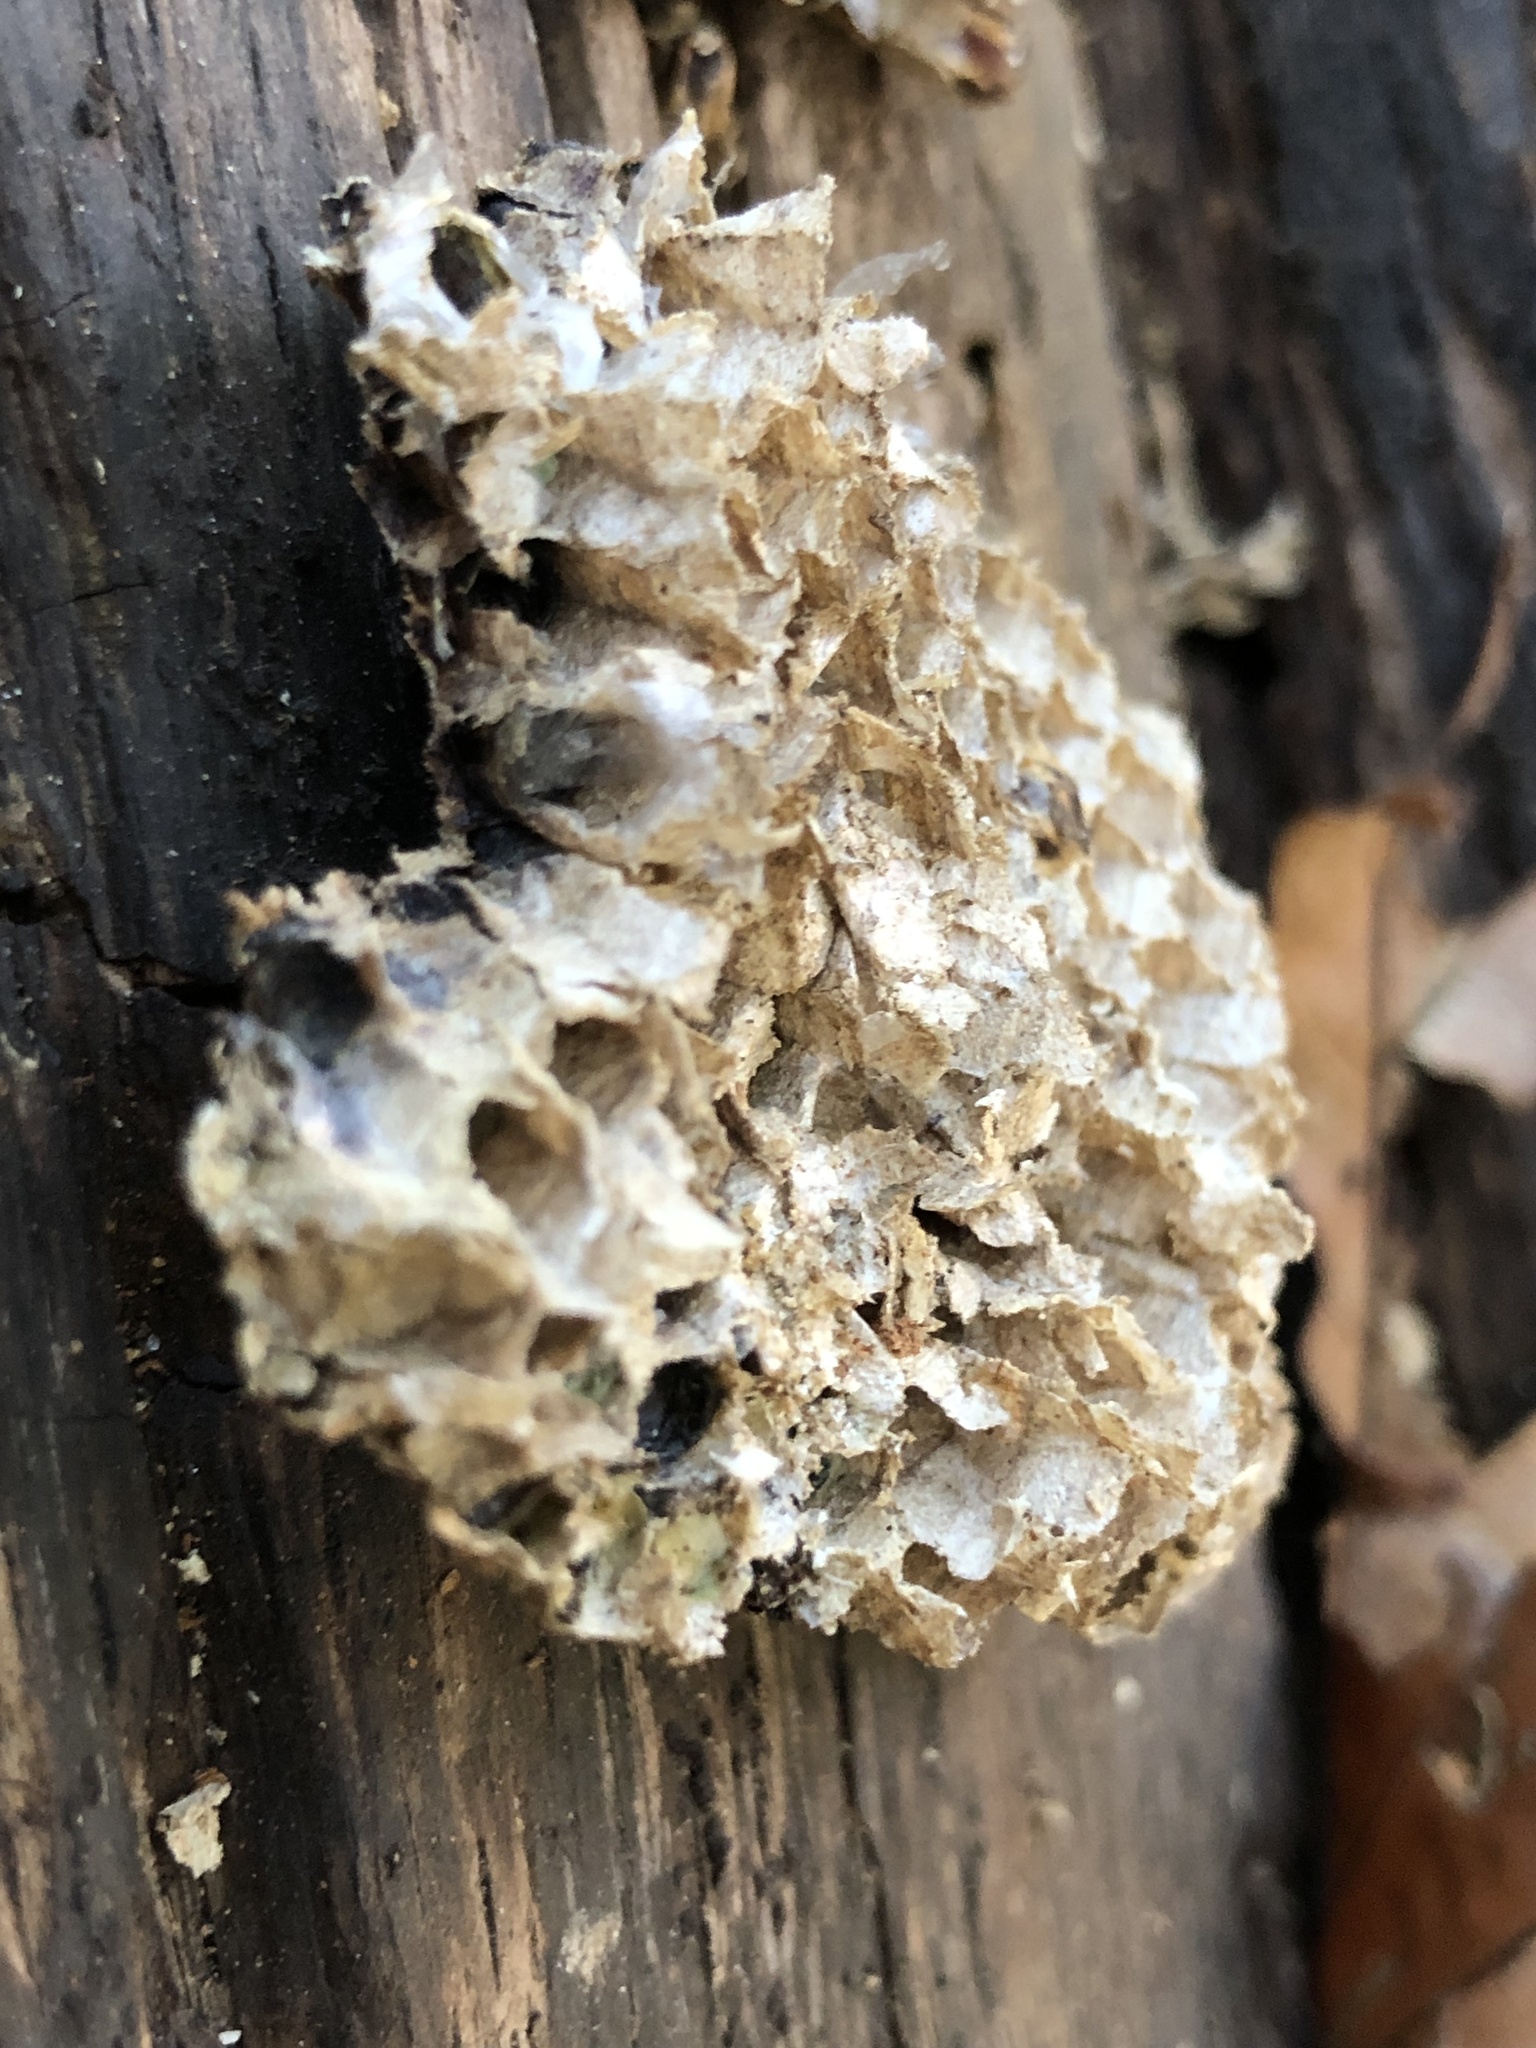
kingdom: Animalia
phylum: Arthropoda
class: Insecta
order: Hymenoptera
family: Vespidae
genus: Vespula
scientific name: Vespula
